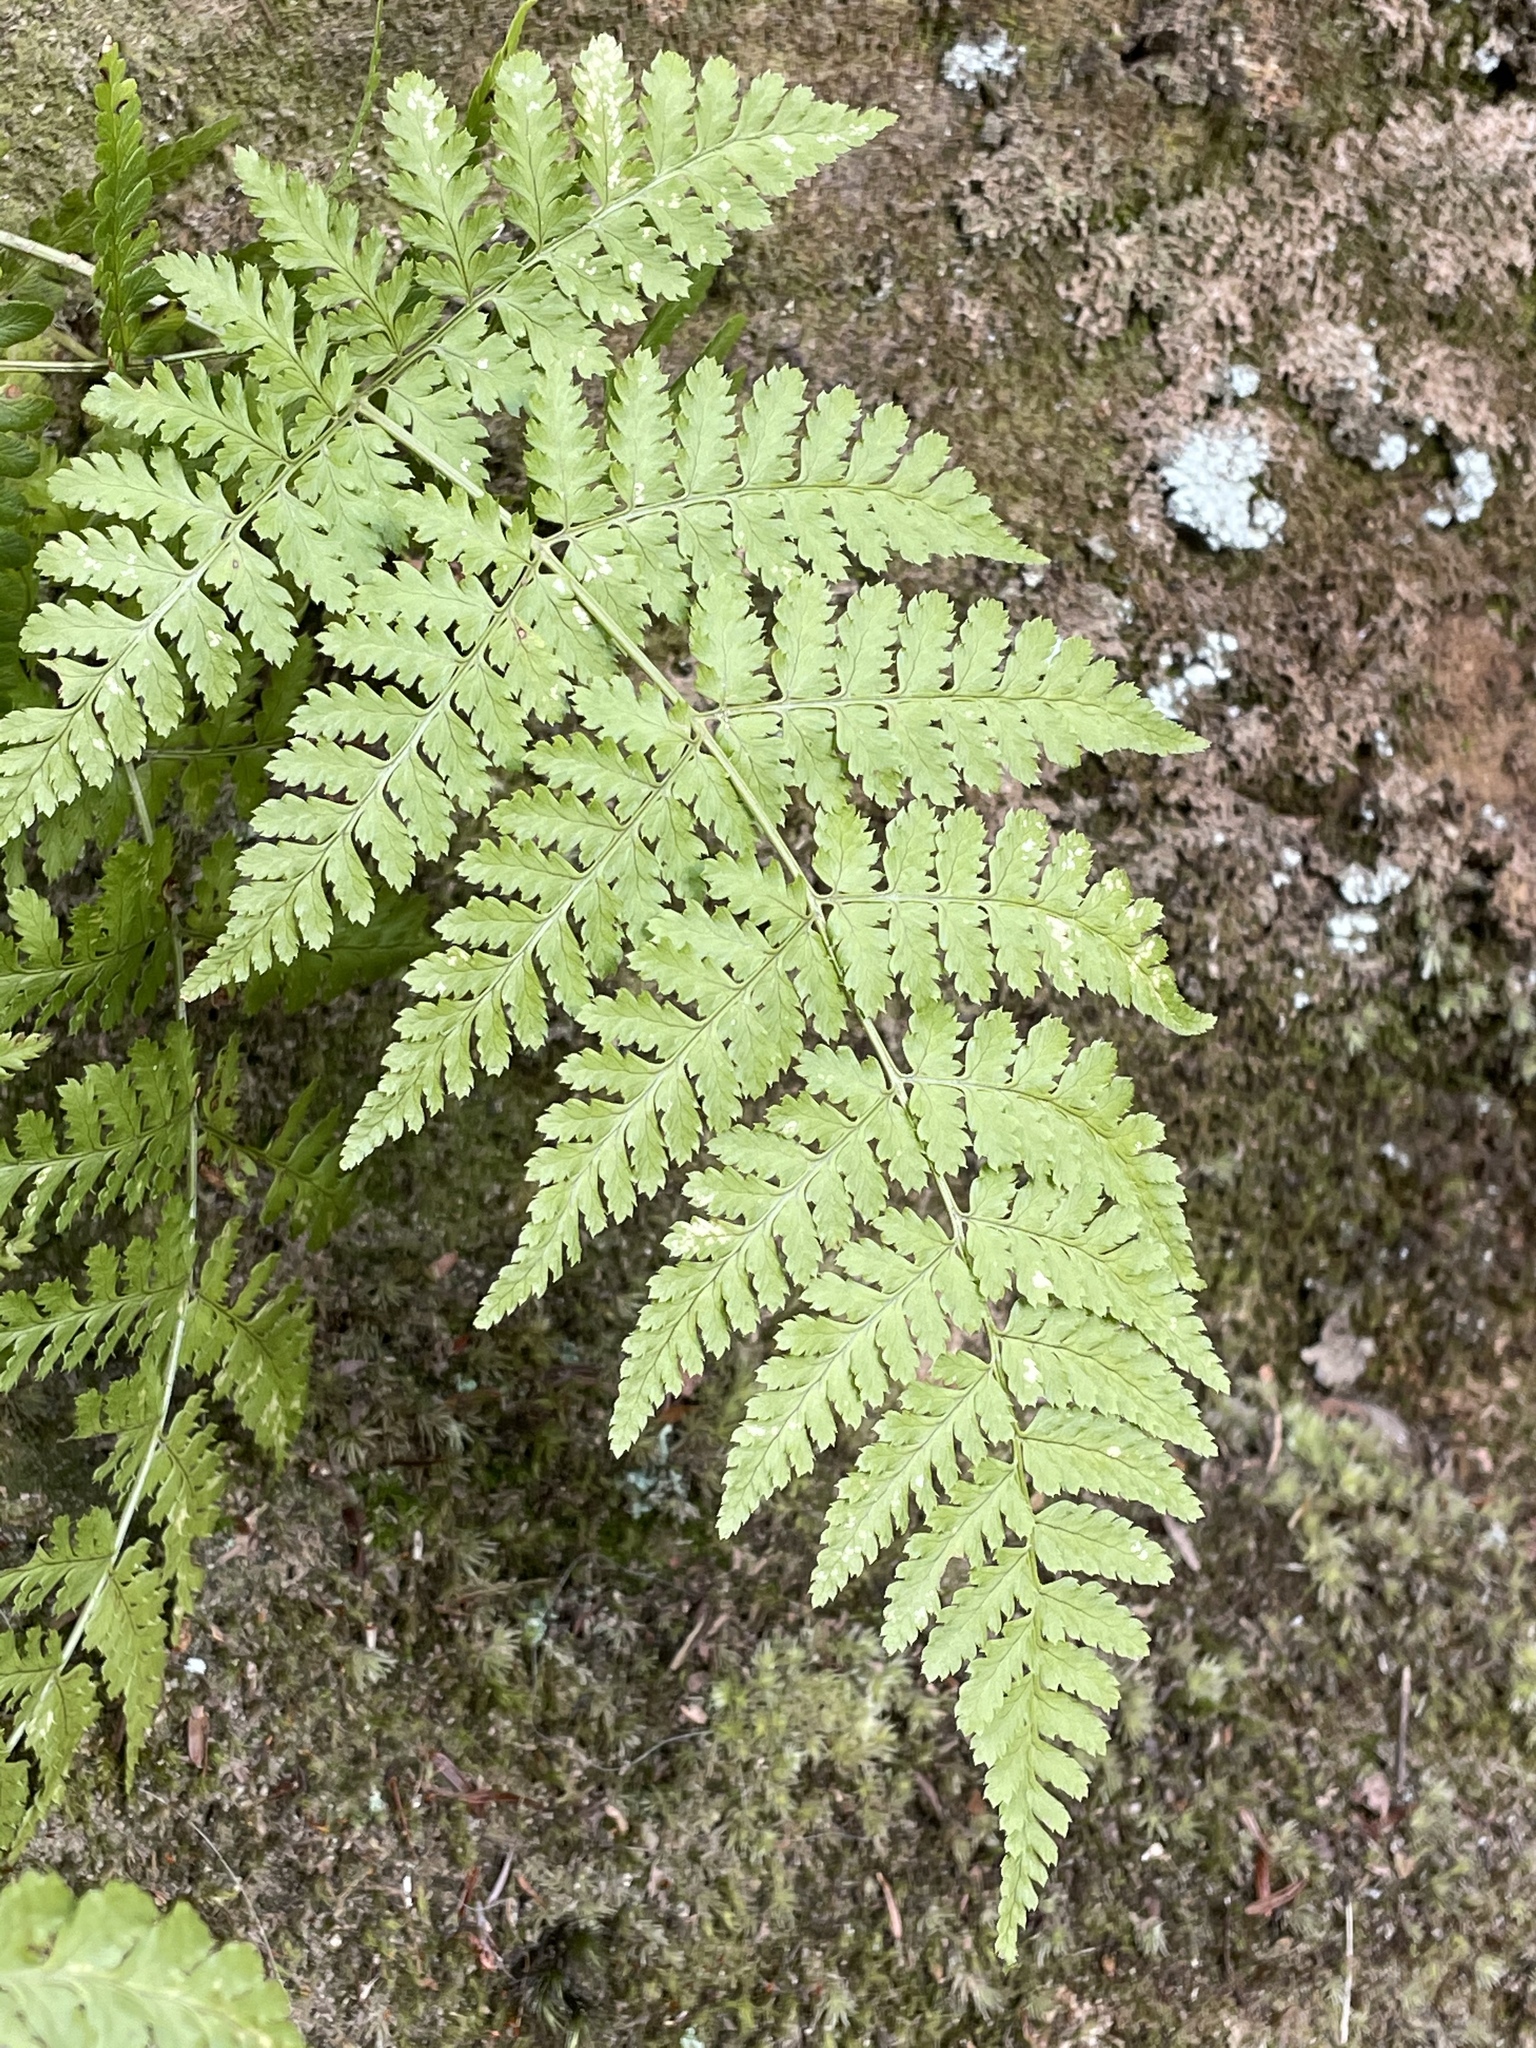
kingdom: Plantae
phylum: Tracheophyta
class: Polypodiopsida
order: Polypodiales
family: Dryopteridaceae
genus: Dryopteris
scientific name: Dryopteris intermedia
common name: Evergreen wood fern
